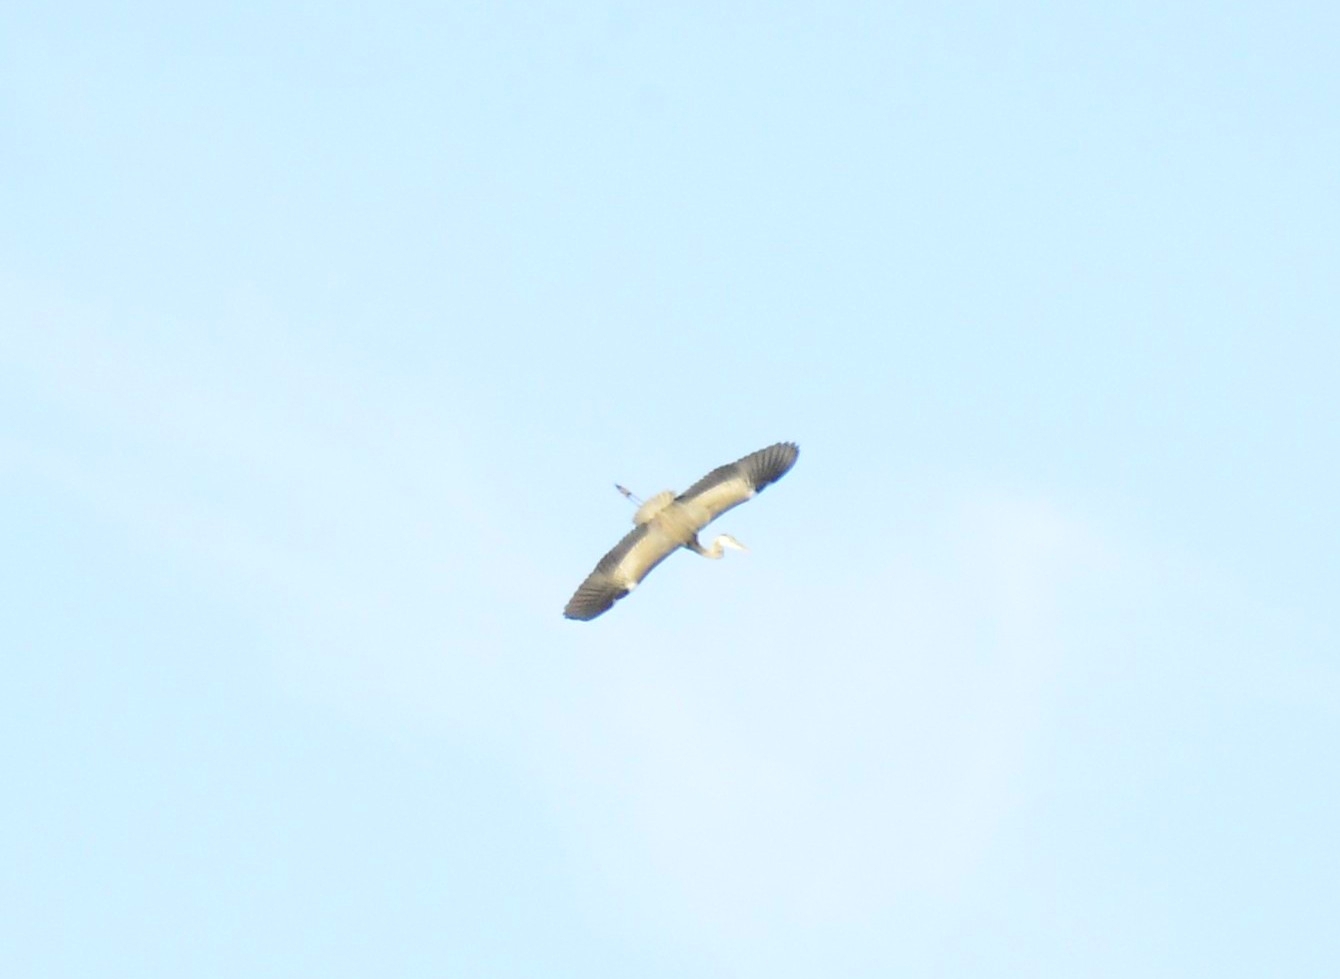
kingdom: Animalia
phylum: Chordata
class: Aves
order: Pelecaniformes
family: Ardeidae
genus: Ardea
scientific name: Ardea cinerea
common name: Grey heron
